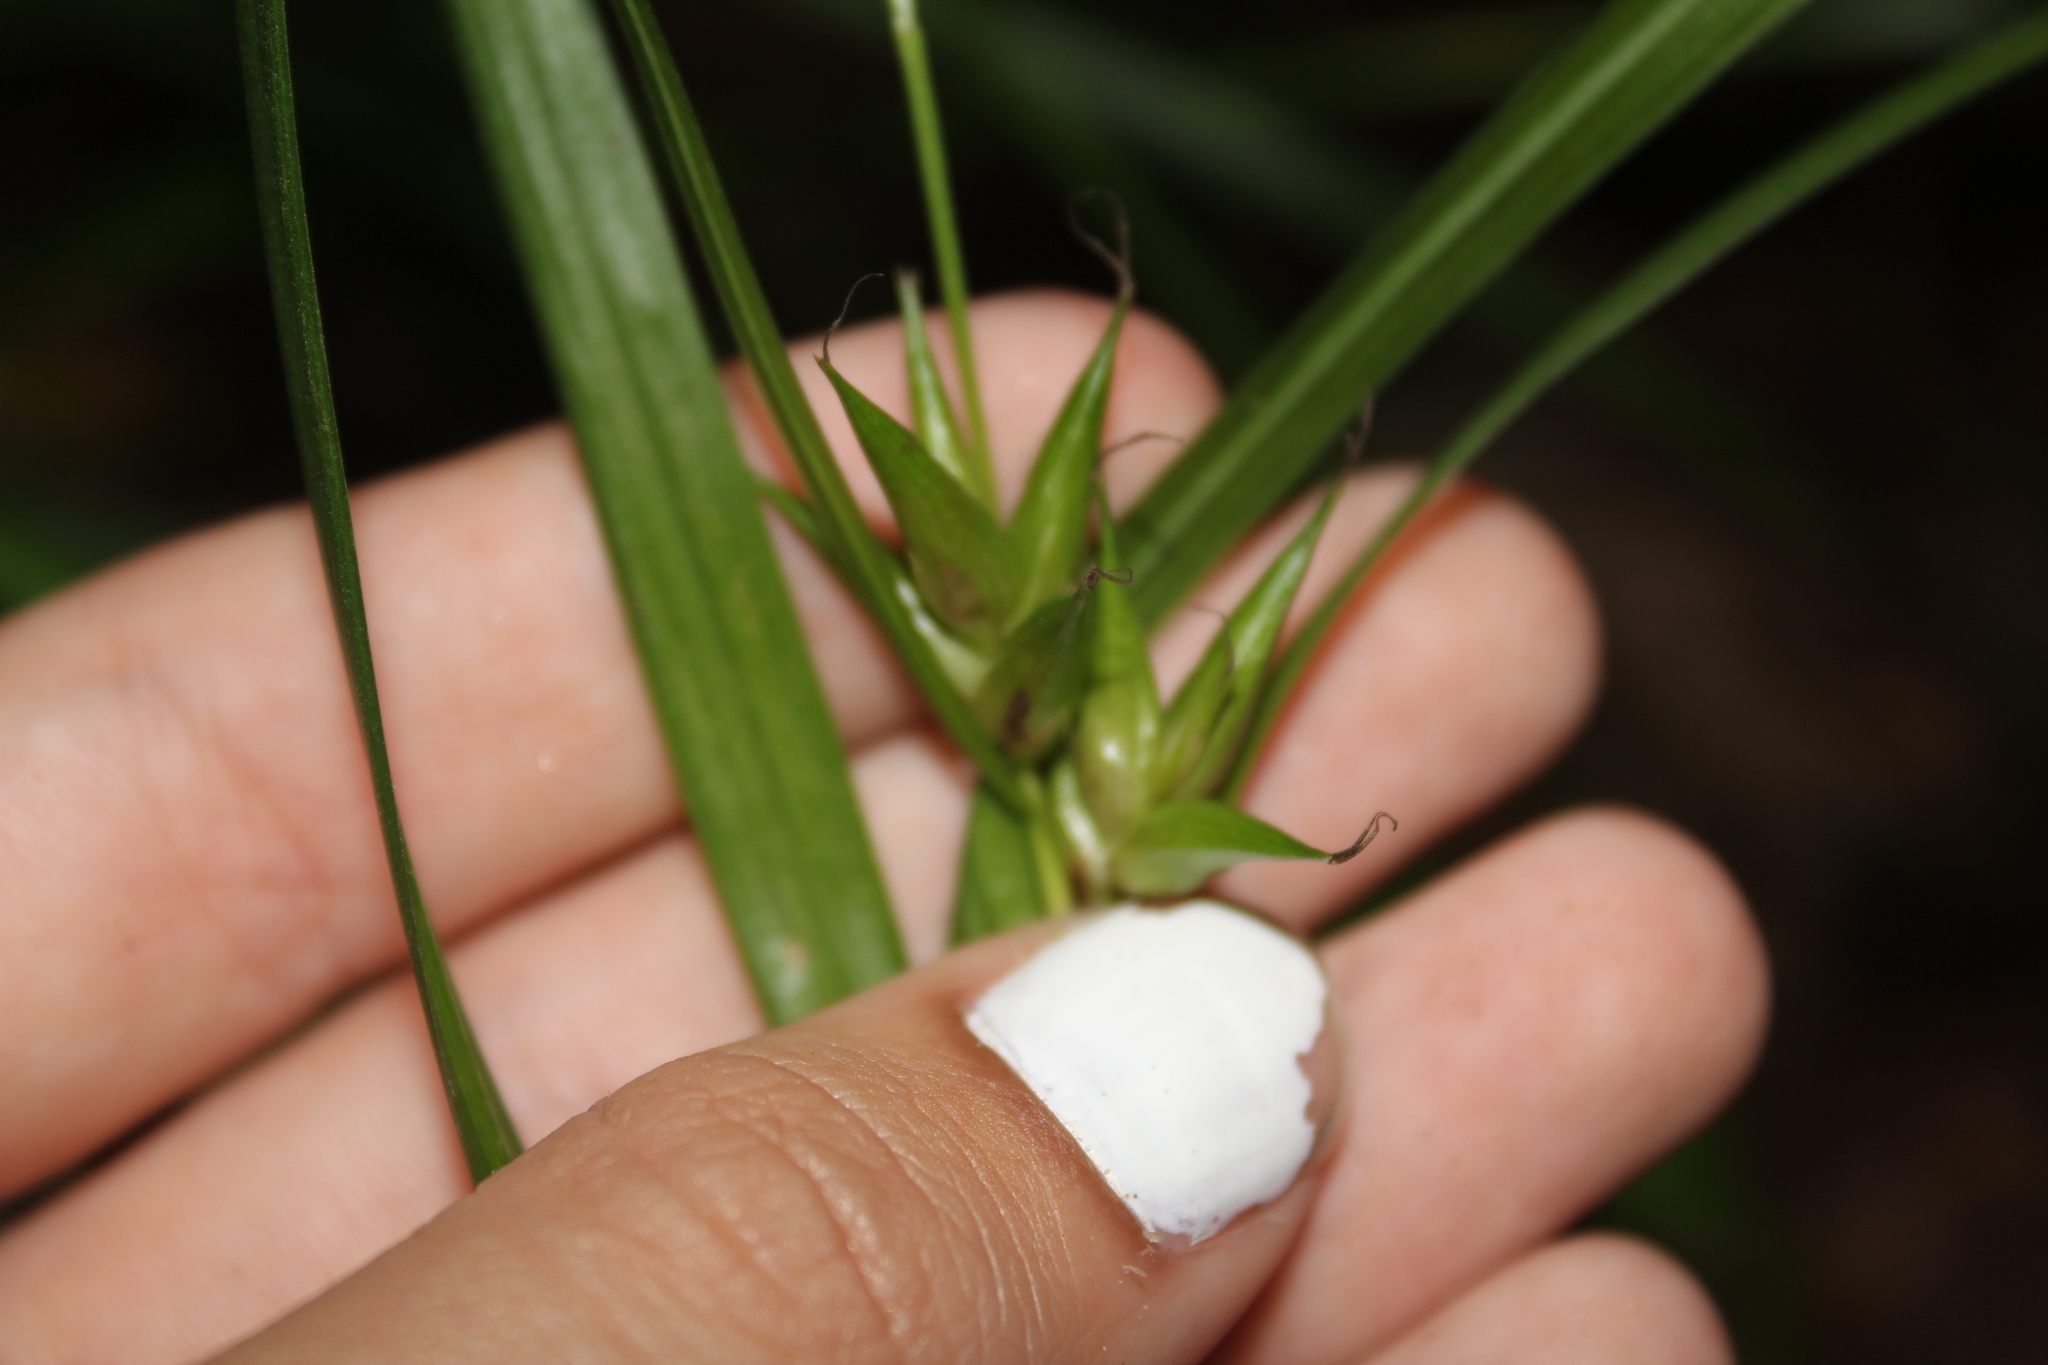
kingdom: Plantae
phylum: Tracheophyta
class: Liliopsida
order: Poales
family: Cyperaceae
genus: Carex
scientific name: Carex intumescens
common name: Greater bladder sedge
